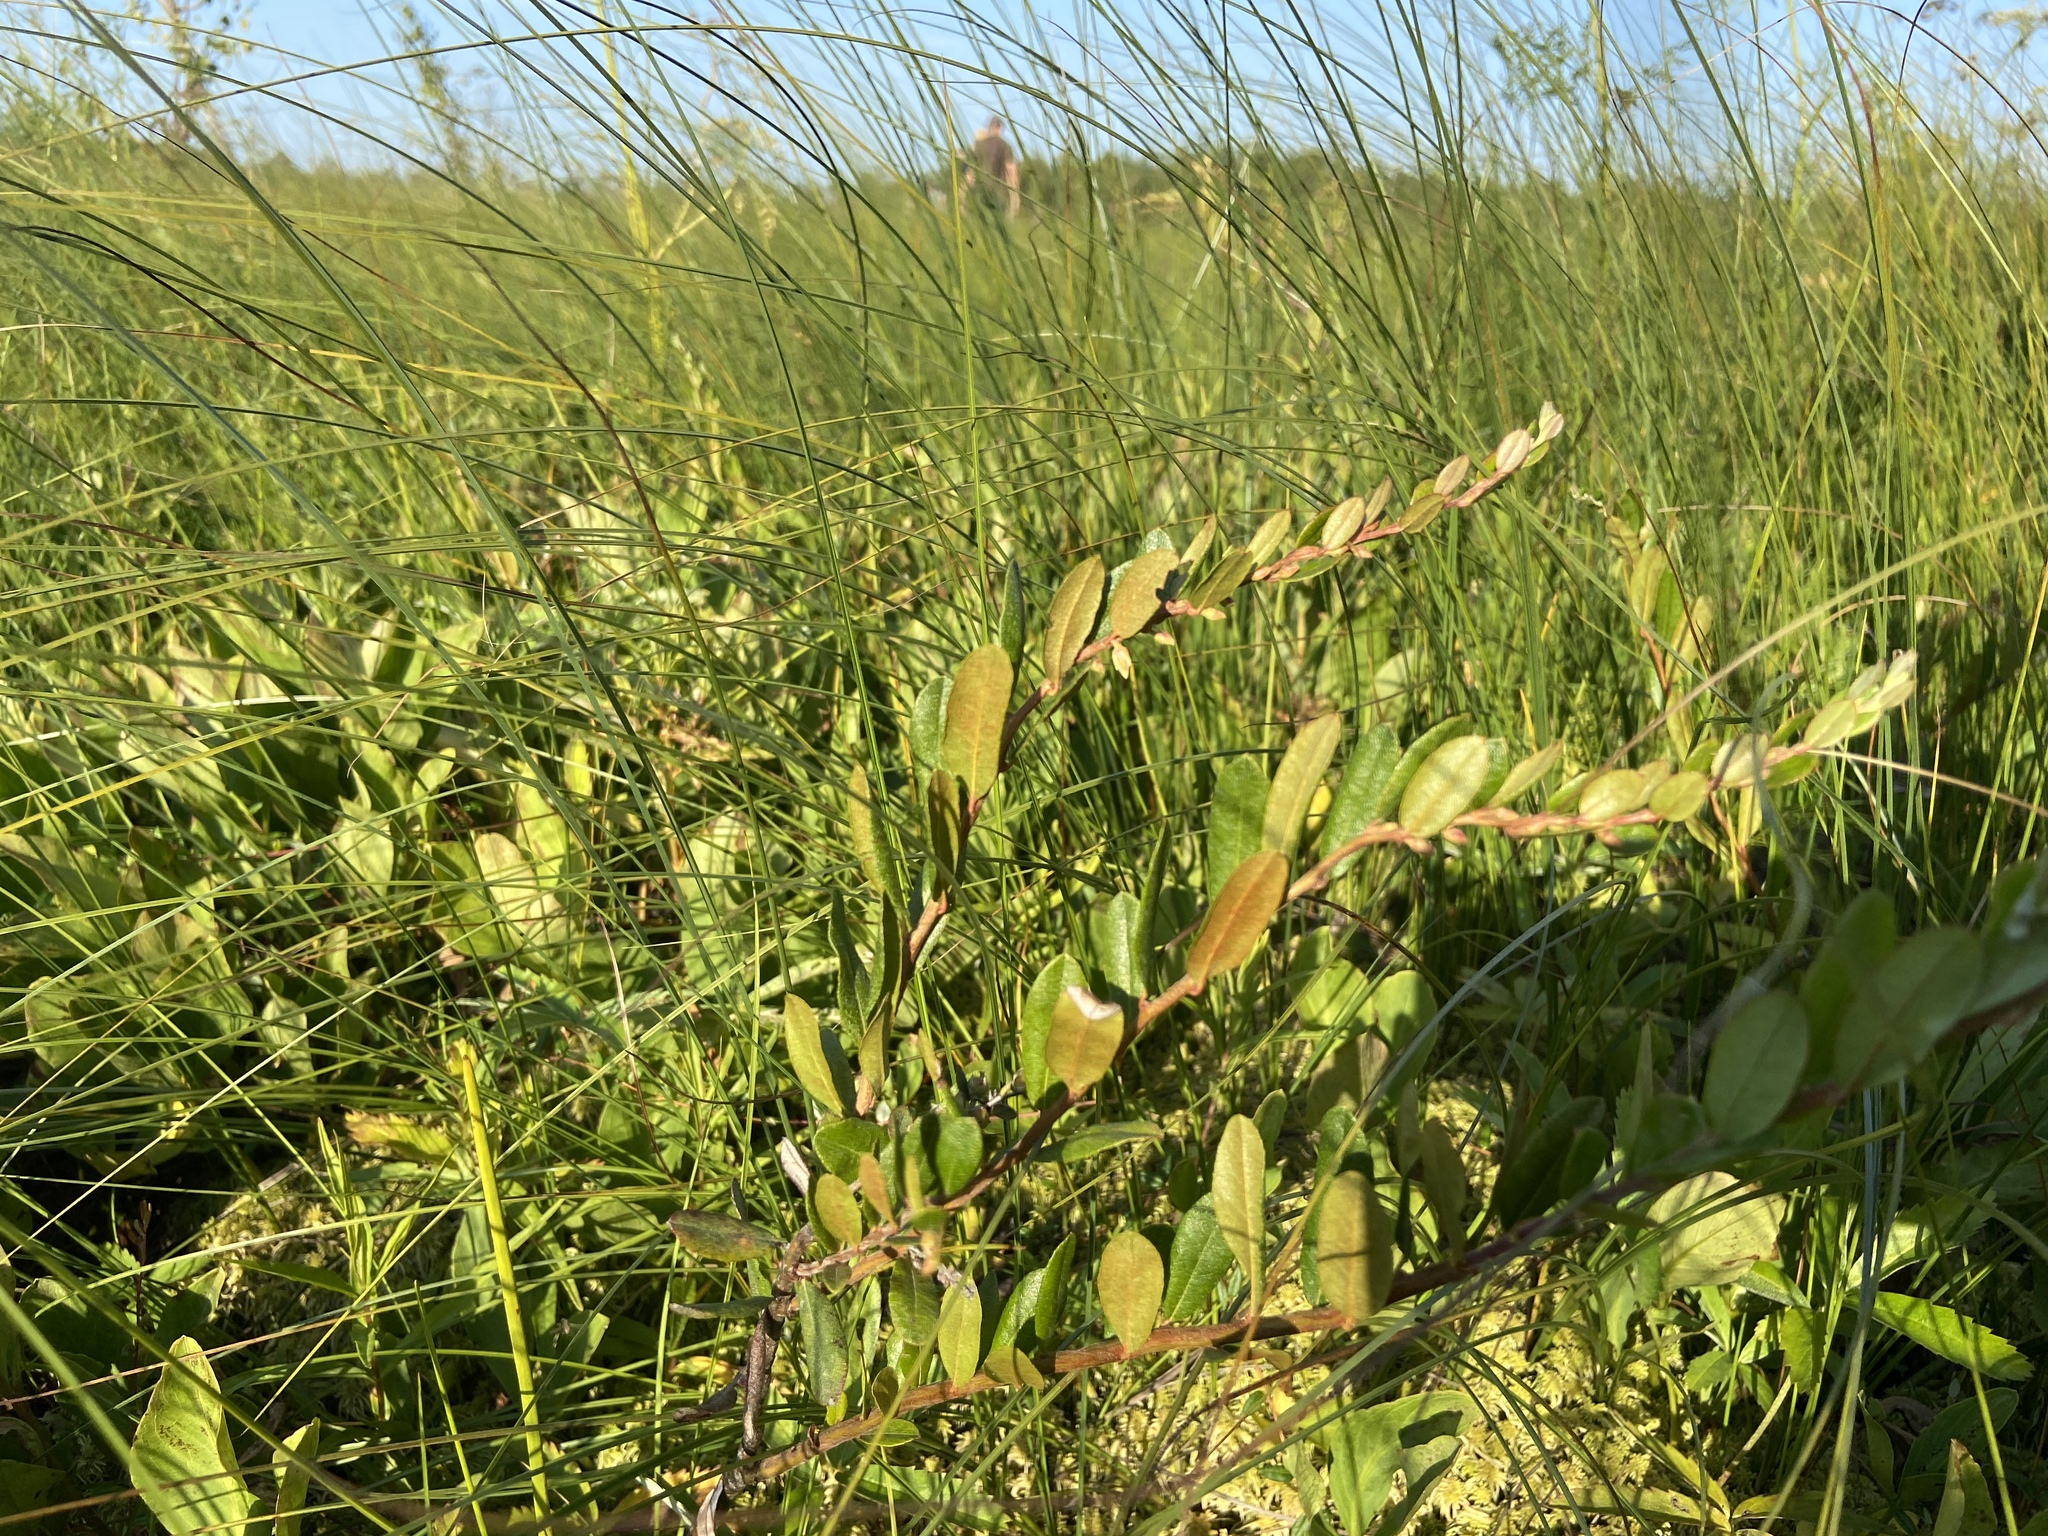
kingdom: Plantae
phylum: Tracheophyta
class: Magnoliopsida
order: Ericales
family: Ericaceae
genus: Chamaedaphne
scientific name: Chamaedaphne calyculata
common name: Leatherleaf
